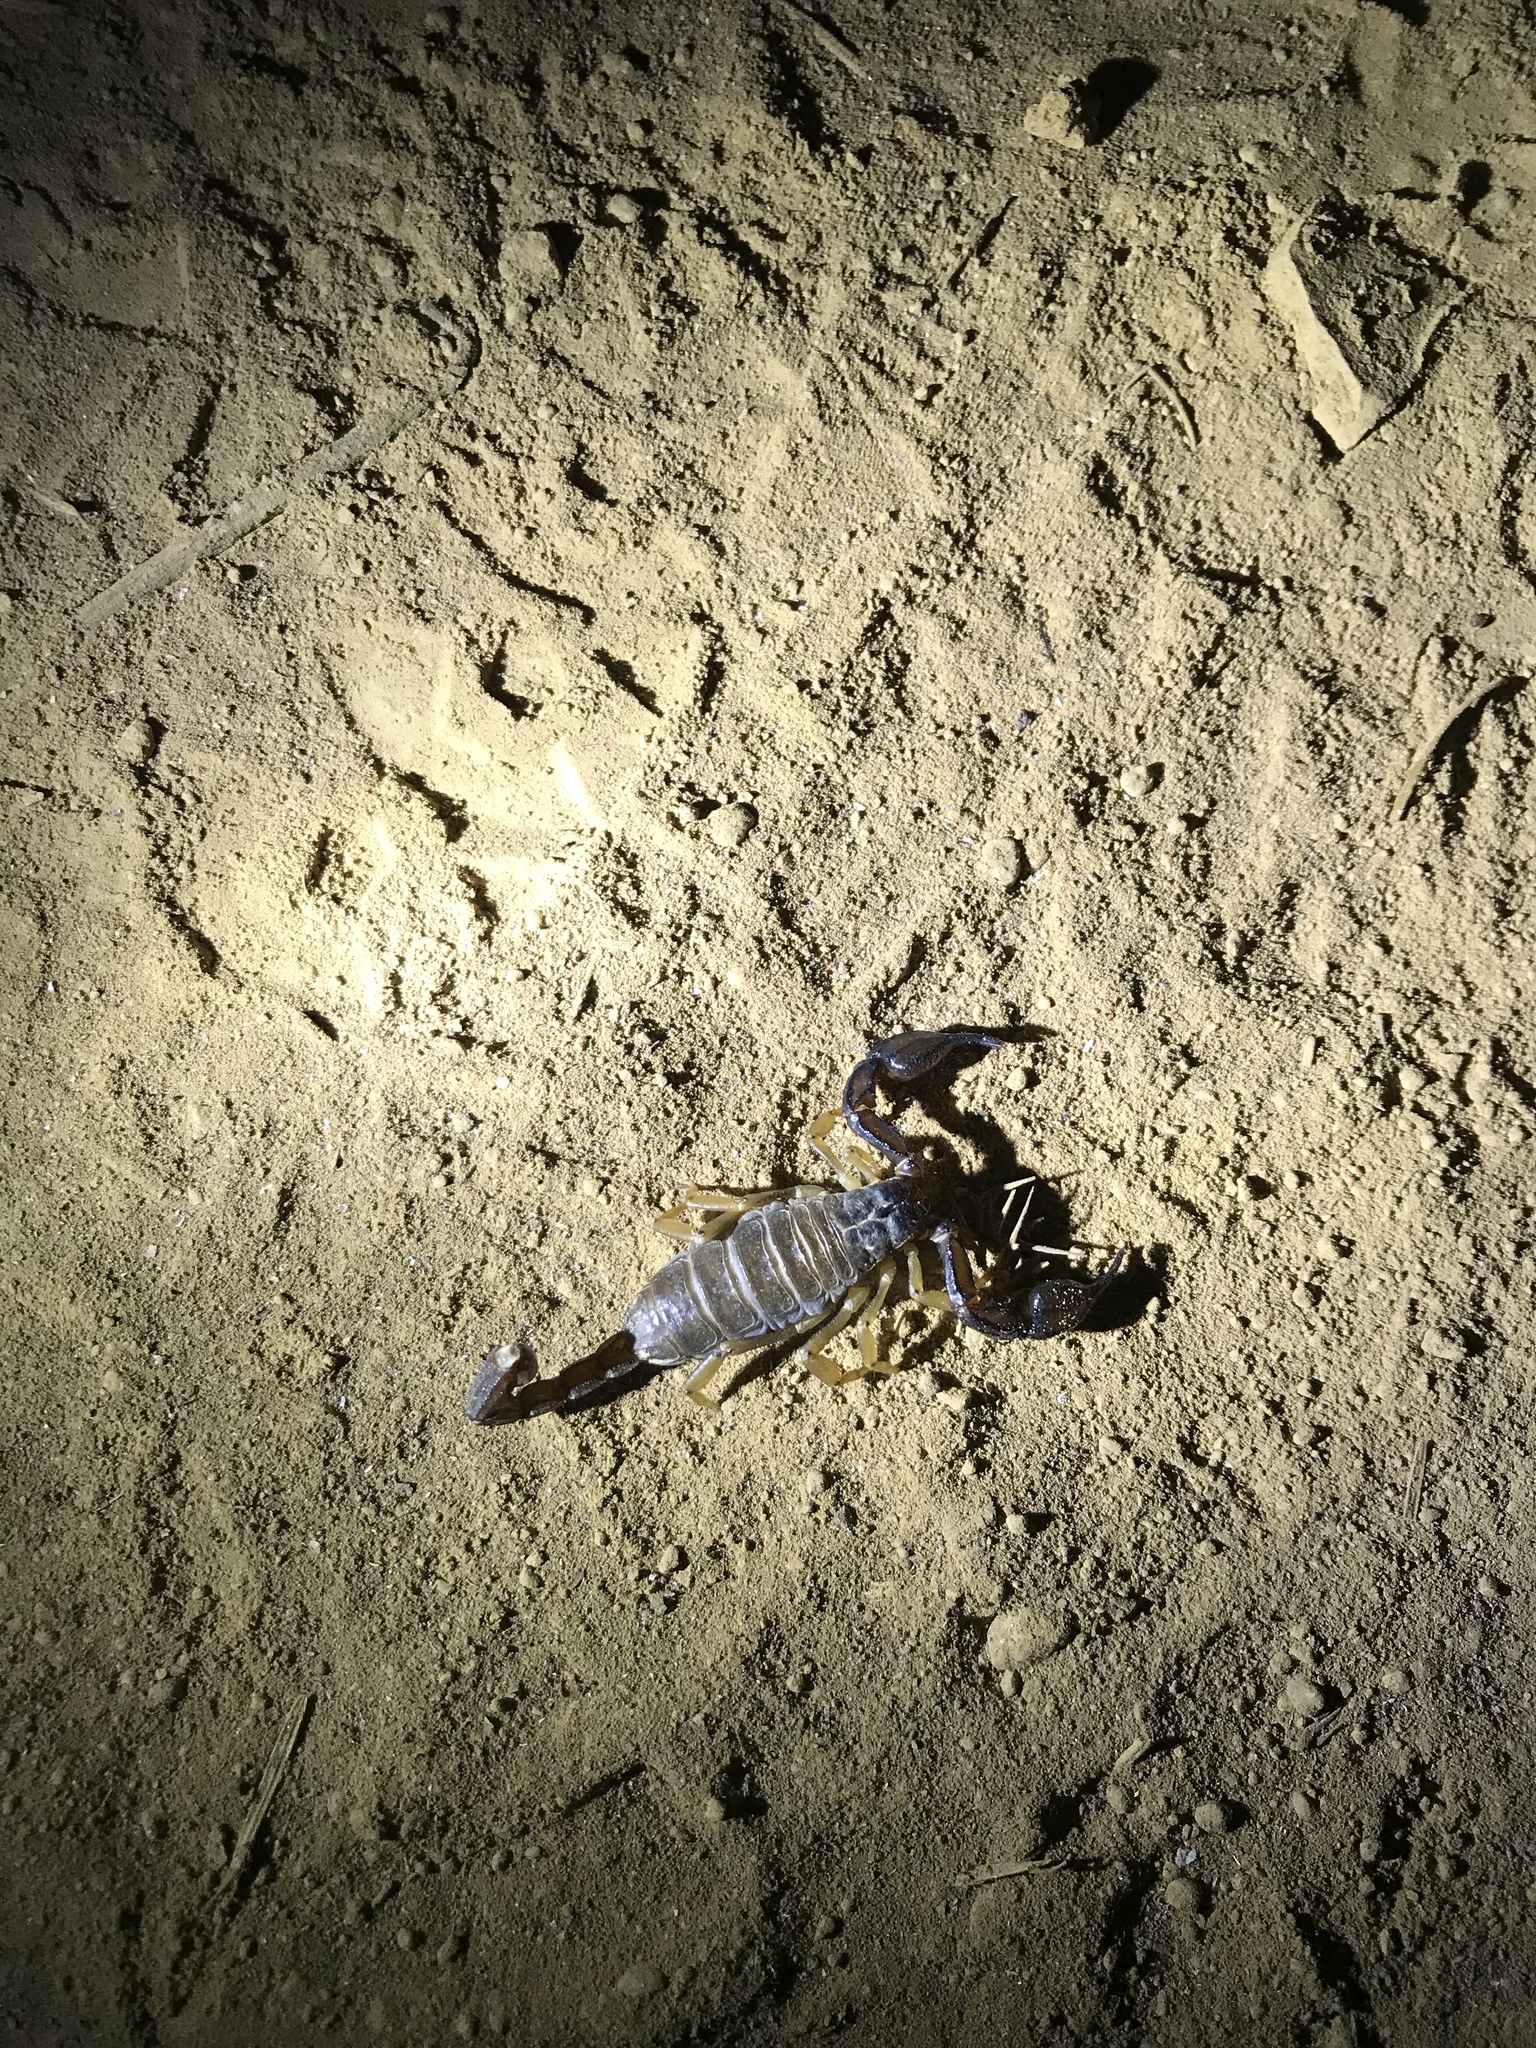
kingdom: Animalia
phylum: Arthropoda
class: Arachnida
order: Scorpiones
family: Chactidae
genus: Uroctonus
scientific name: Uroctonus mordax
